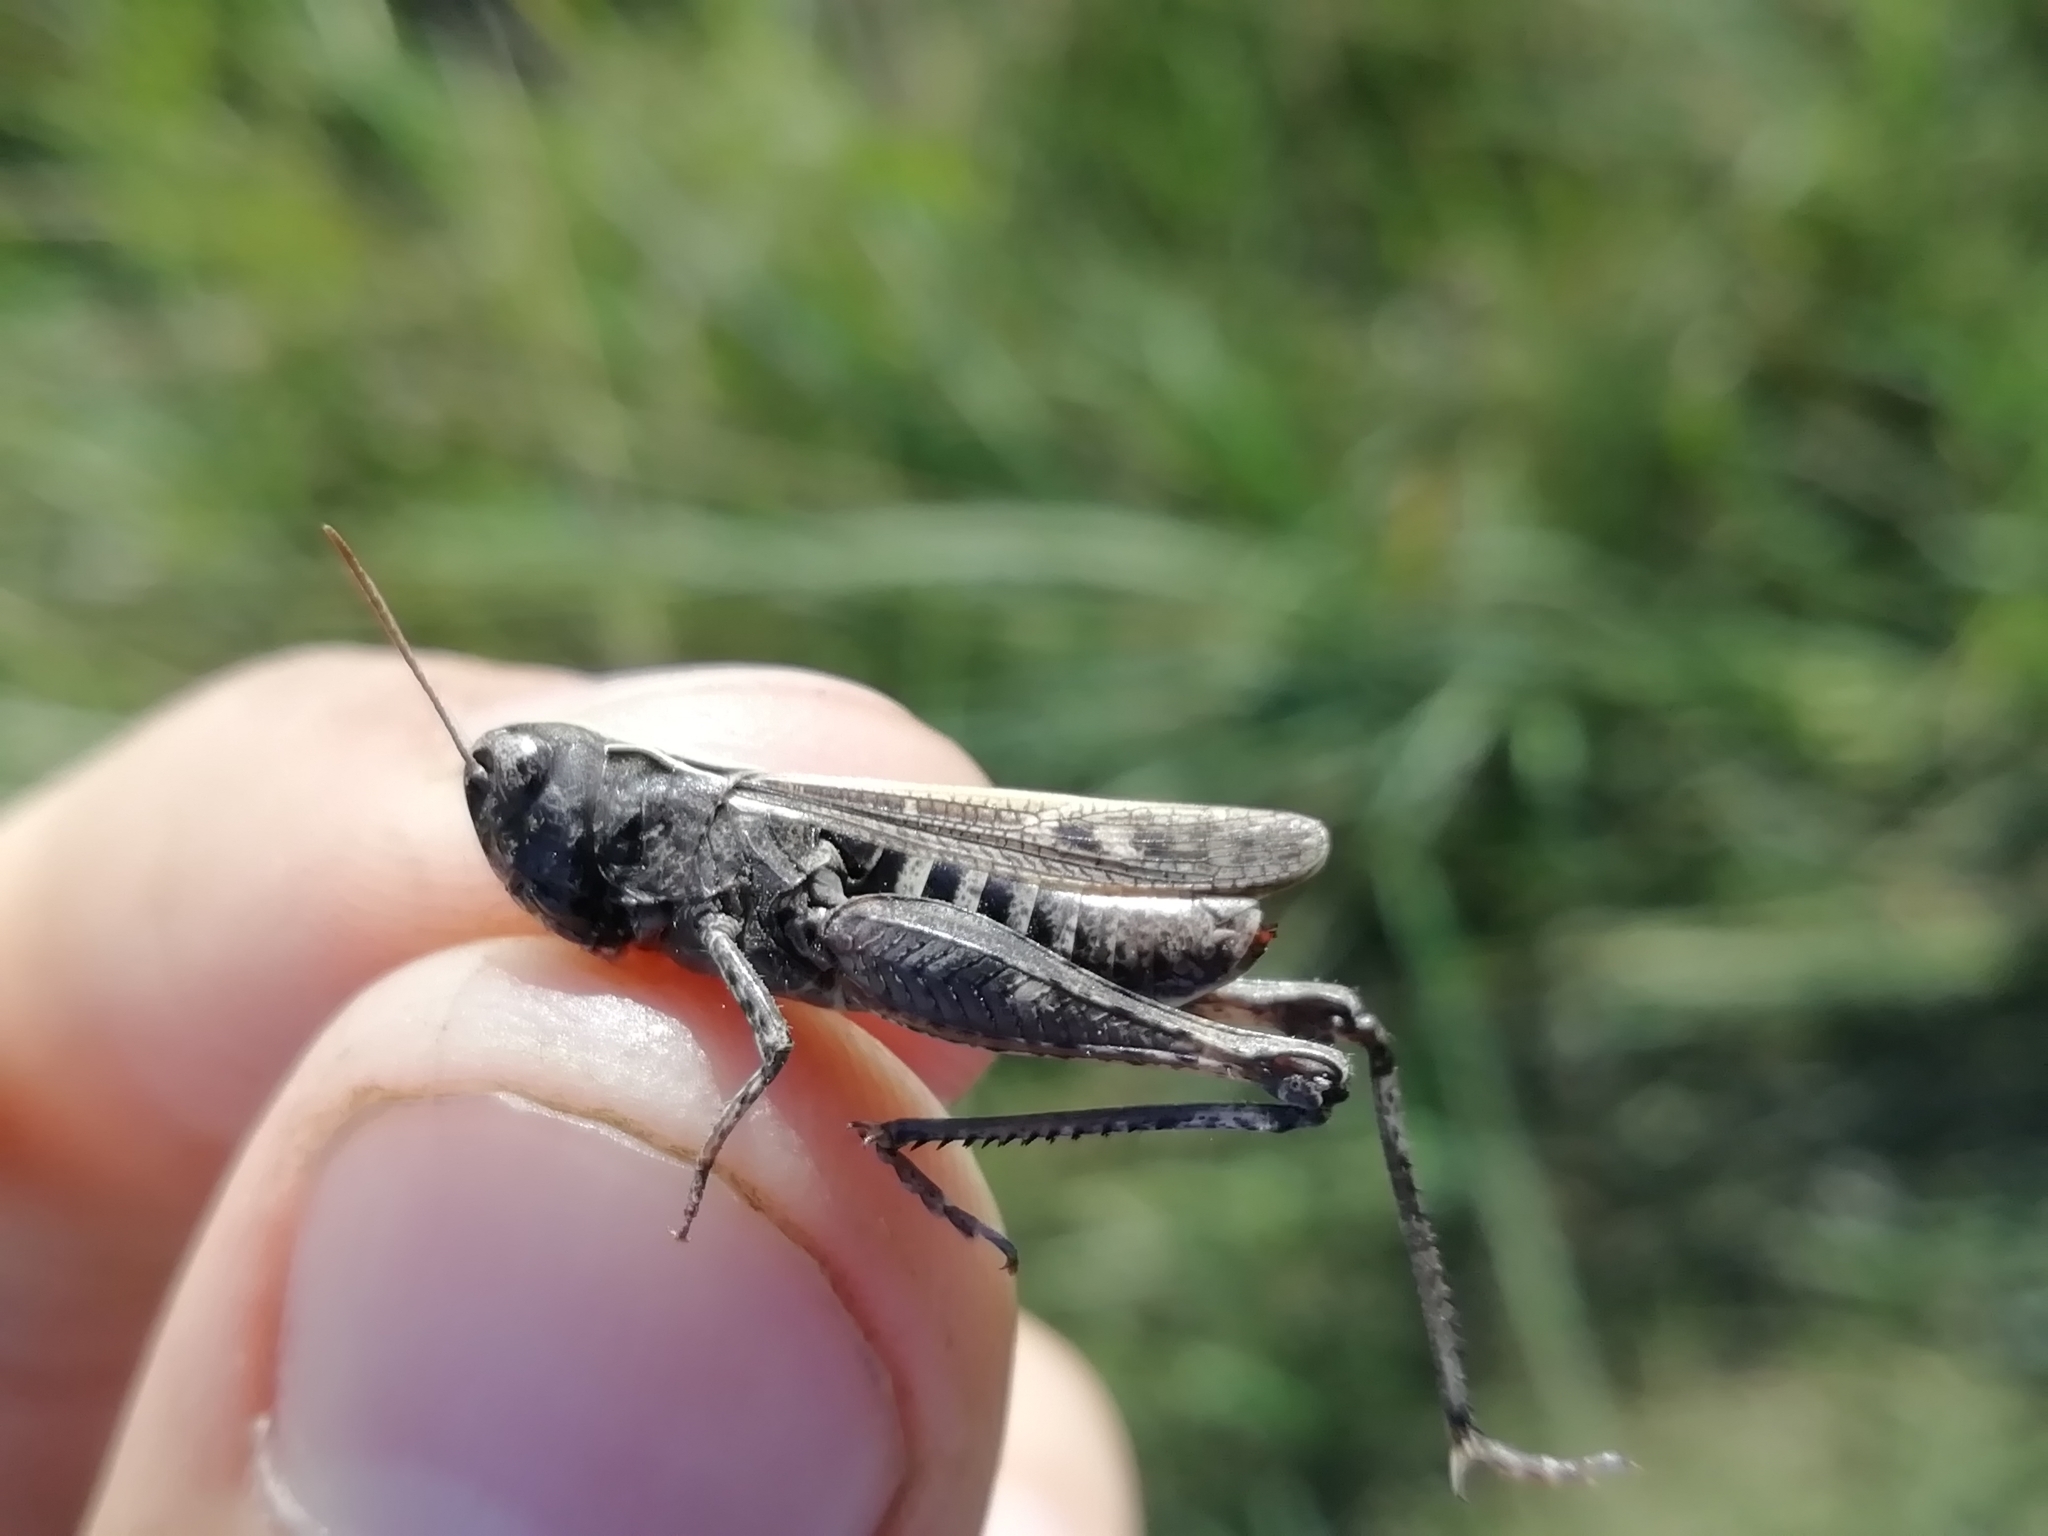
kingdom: Animalia
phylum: Arthropoda
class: Insecta
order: Orthoptera
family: Acrididae
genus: Omocestus
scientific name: Omocestus haemorrhoidalis
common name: Orange-tipped grasshopper
